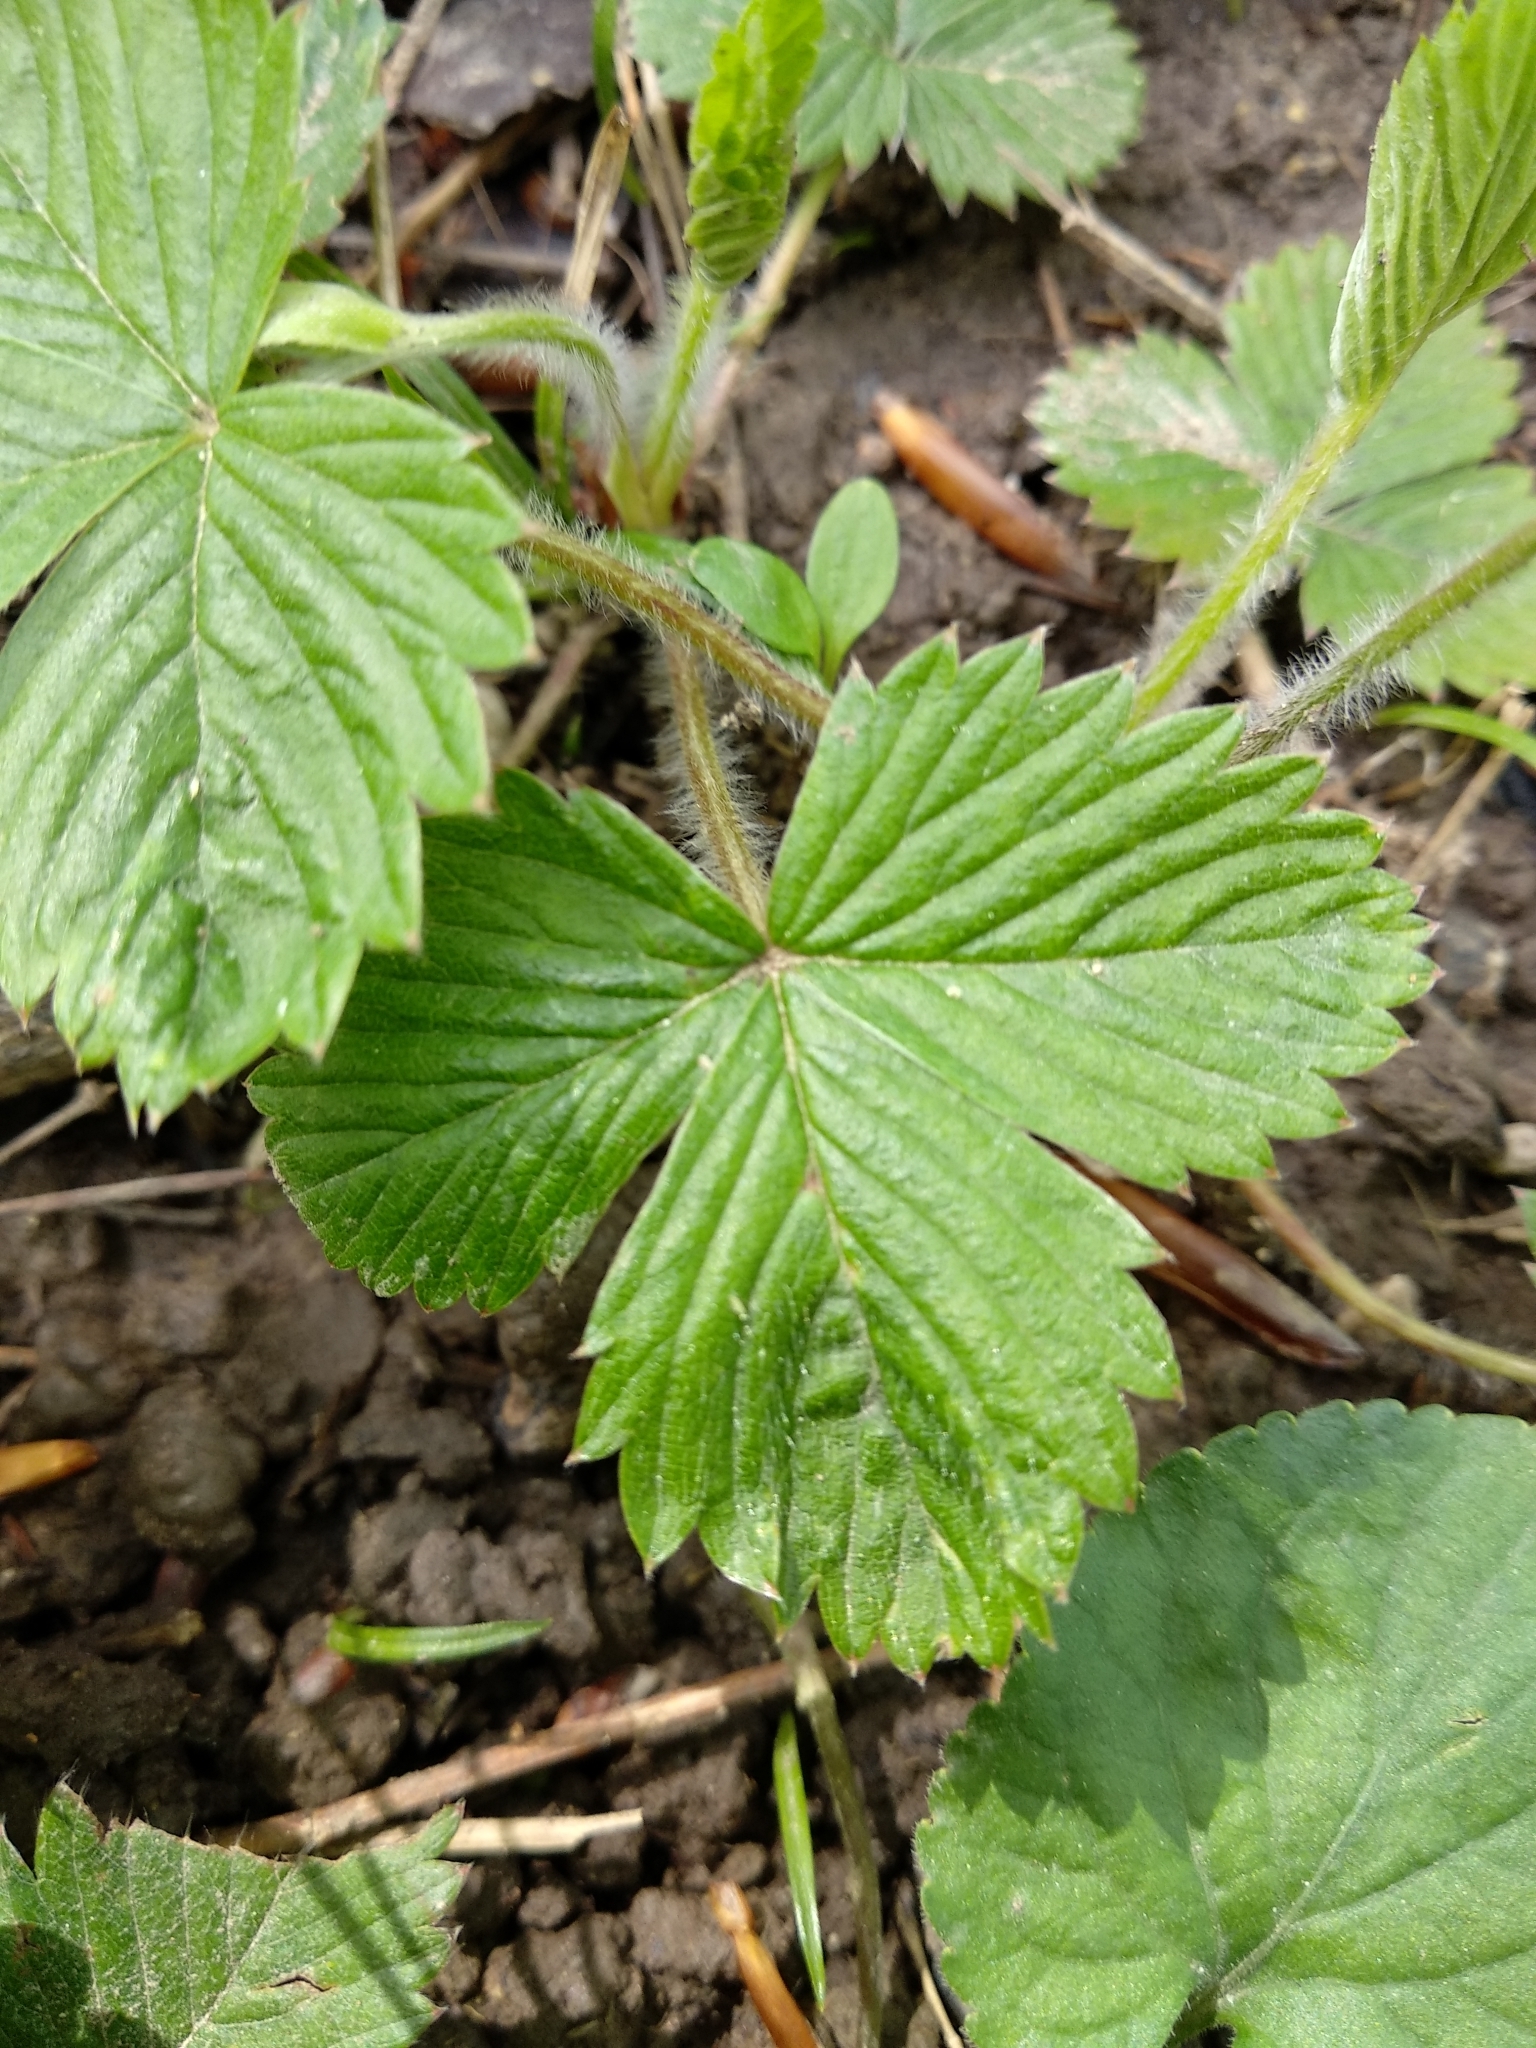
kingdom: Plantae
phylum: Tracheophyta
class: Magnoliopsida
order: Rosales
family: Rosaceae
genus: Fragaria
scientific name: Fragaria vesca
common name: Wild strawberry
